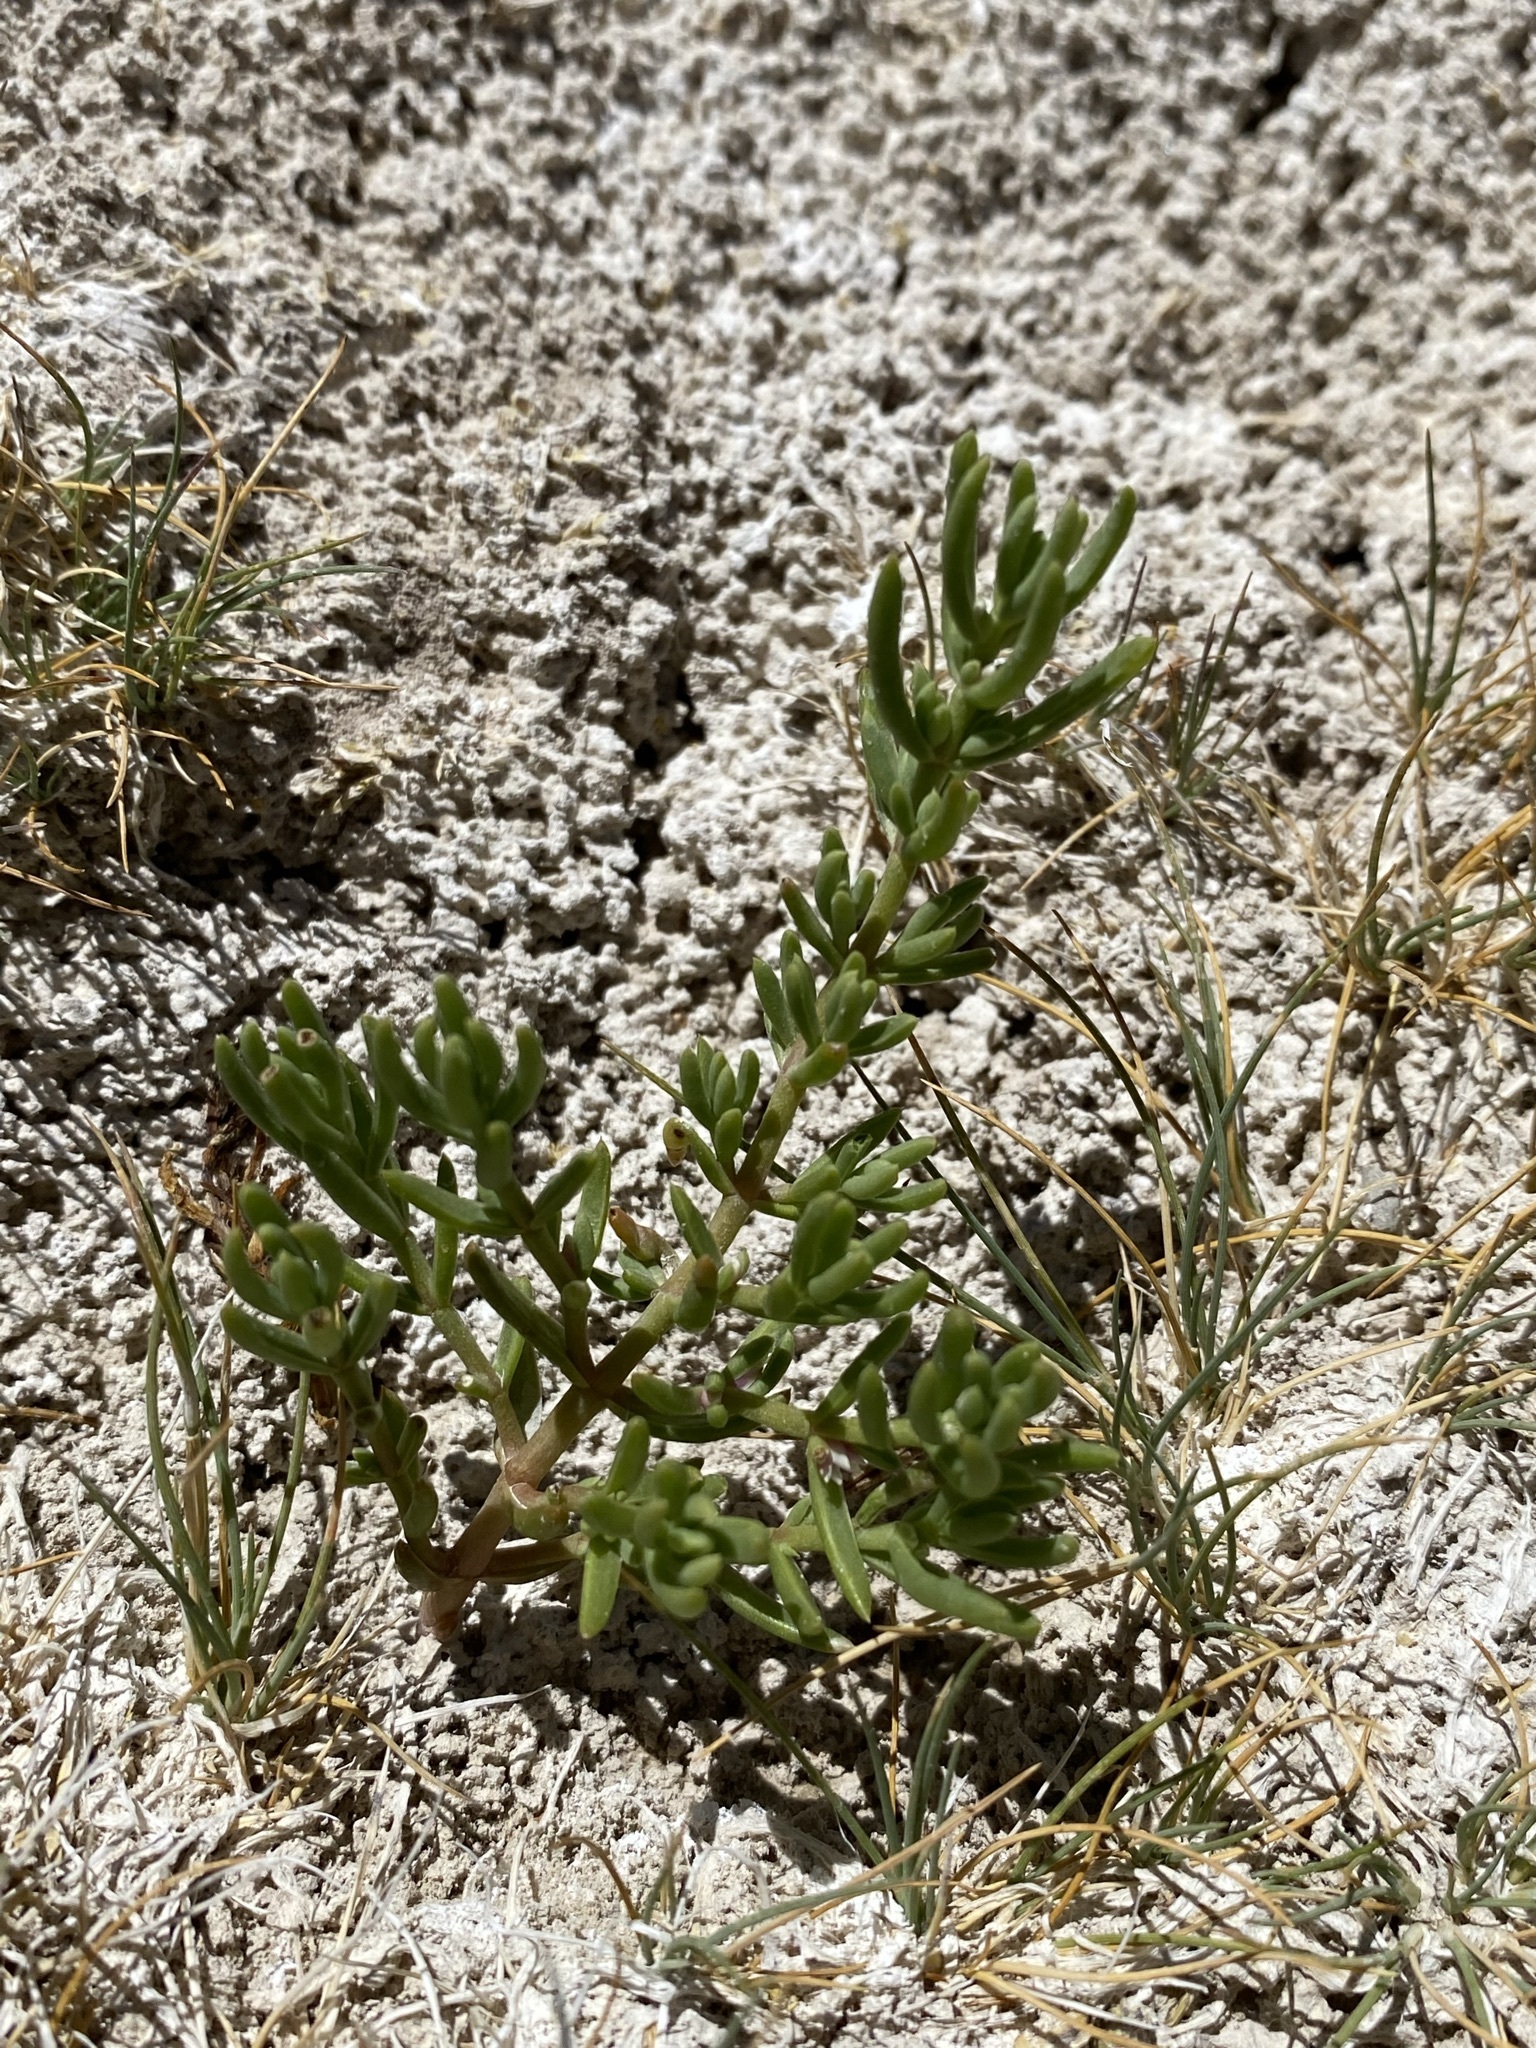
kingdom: Plantae
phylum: Tracheophyta
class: Magnoliopsida
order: Caryophyllales
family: Amaranthaceae
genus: Nitrophila
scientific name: Nitrophila occidentalis
